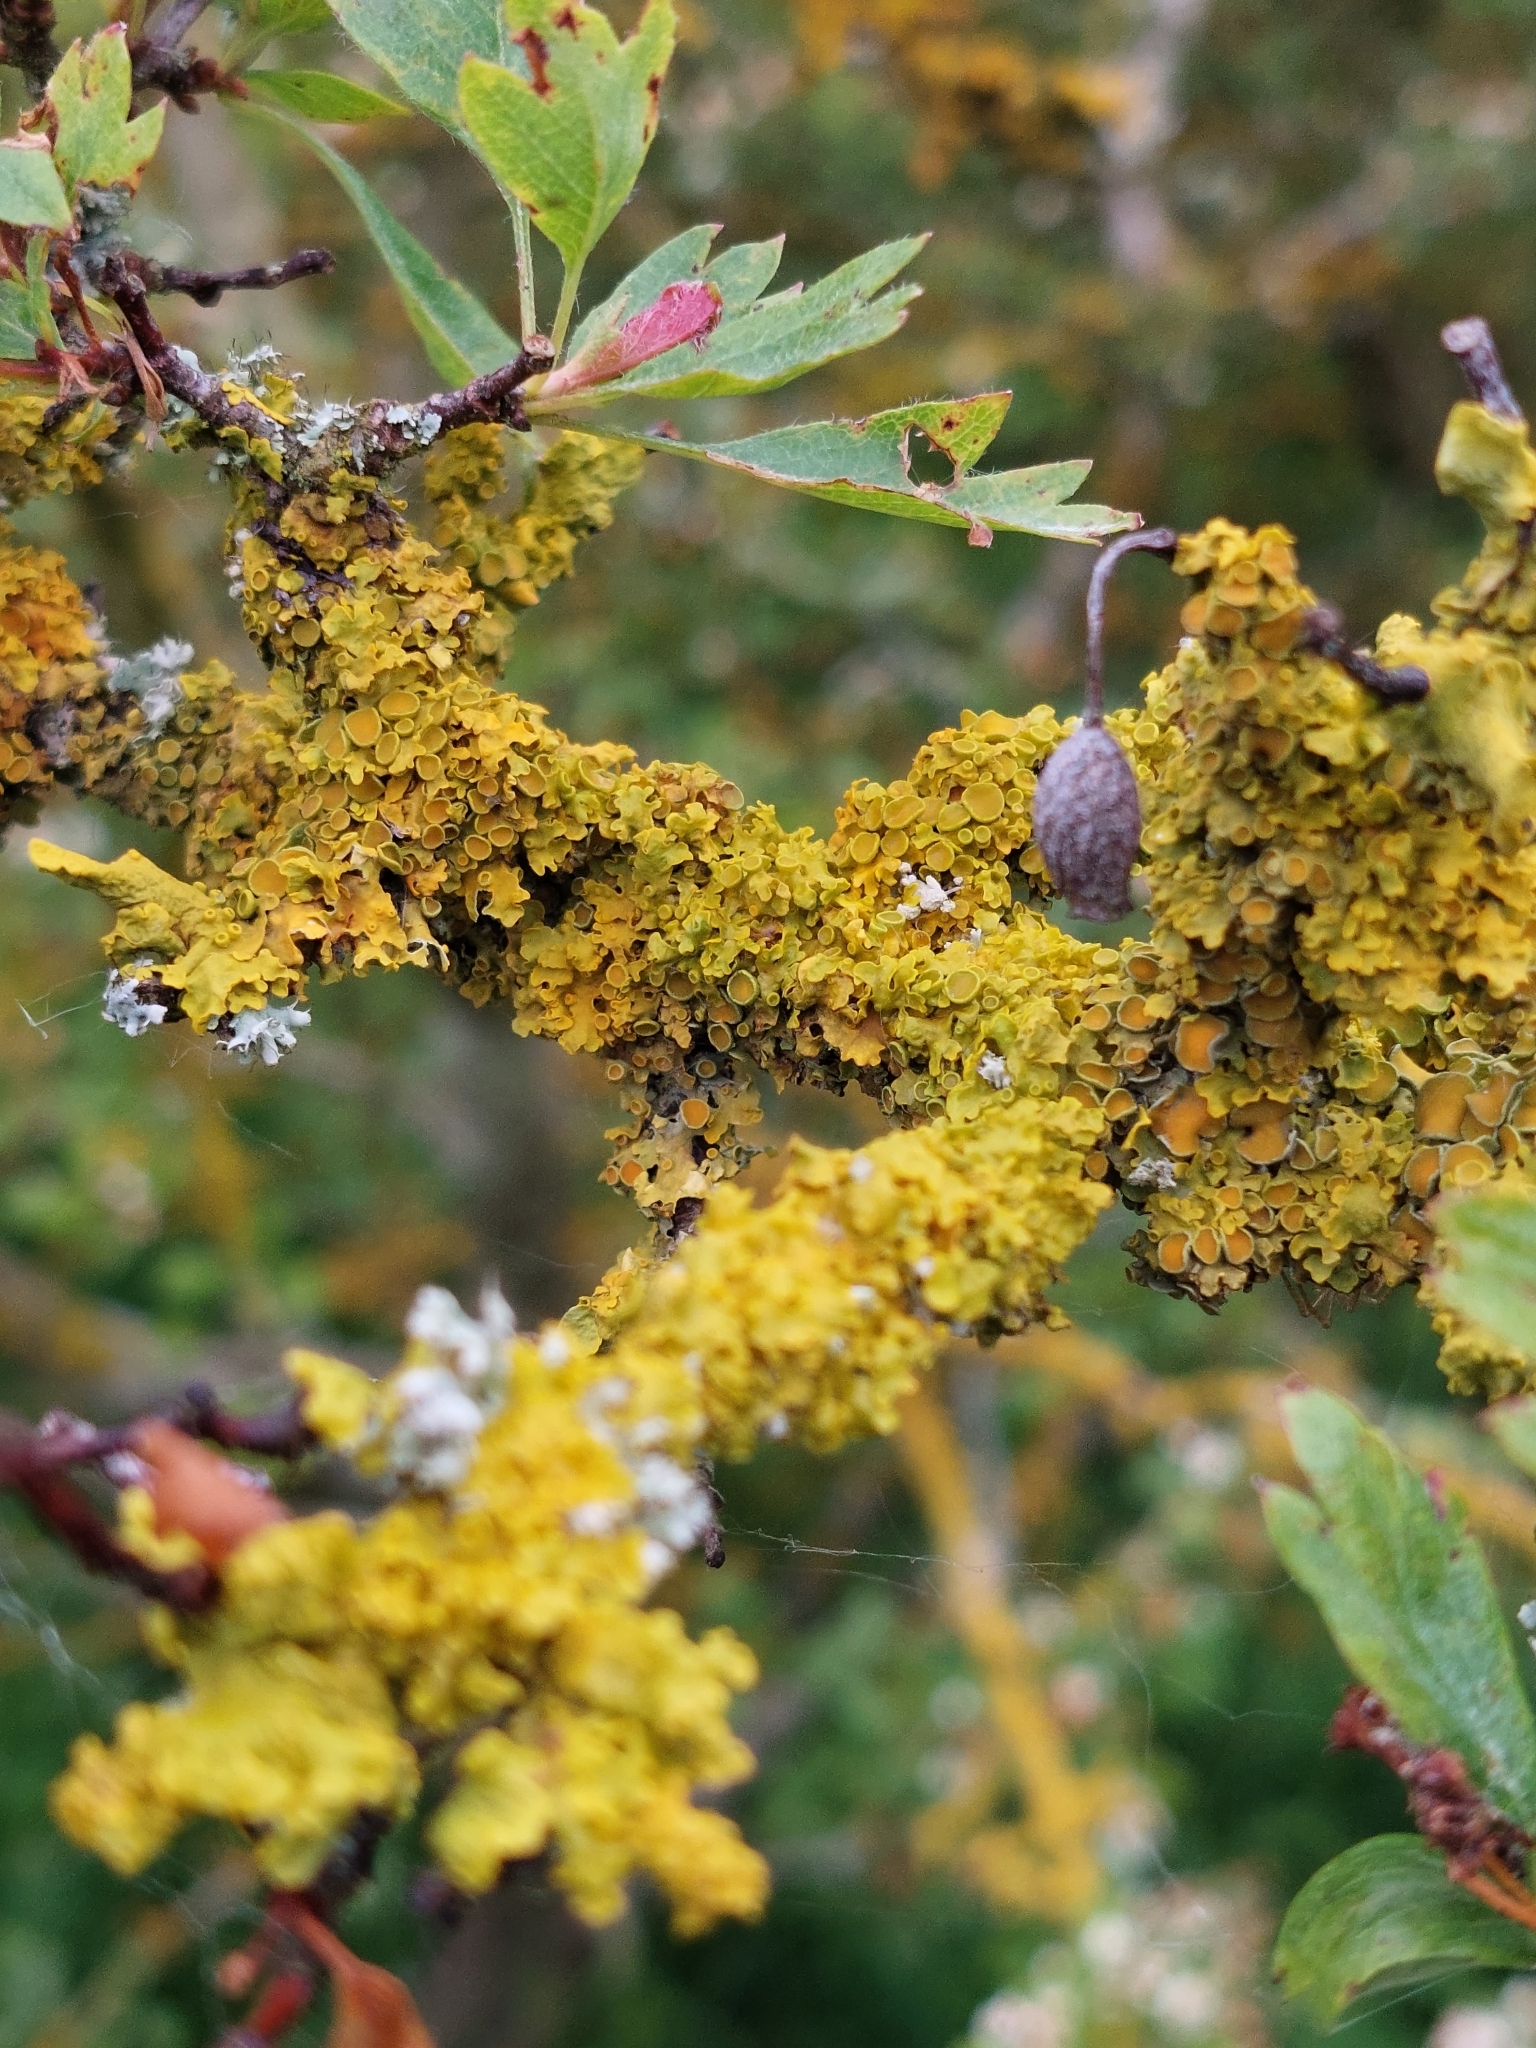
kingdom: Fungi
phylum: Ascomycota
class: Lecanoromycetes
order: Teloschistales
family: Teloschistaceae
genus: Xanthoria
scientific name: Xanthoria parietina
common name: Common orange lichen
